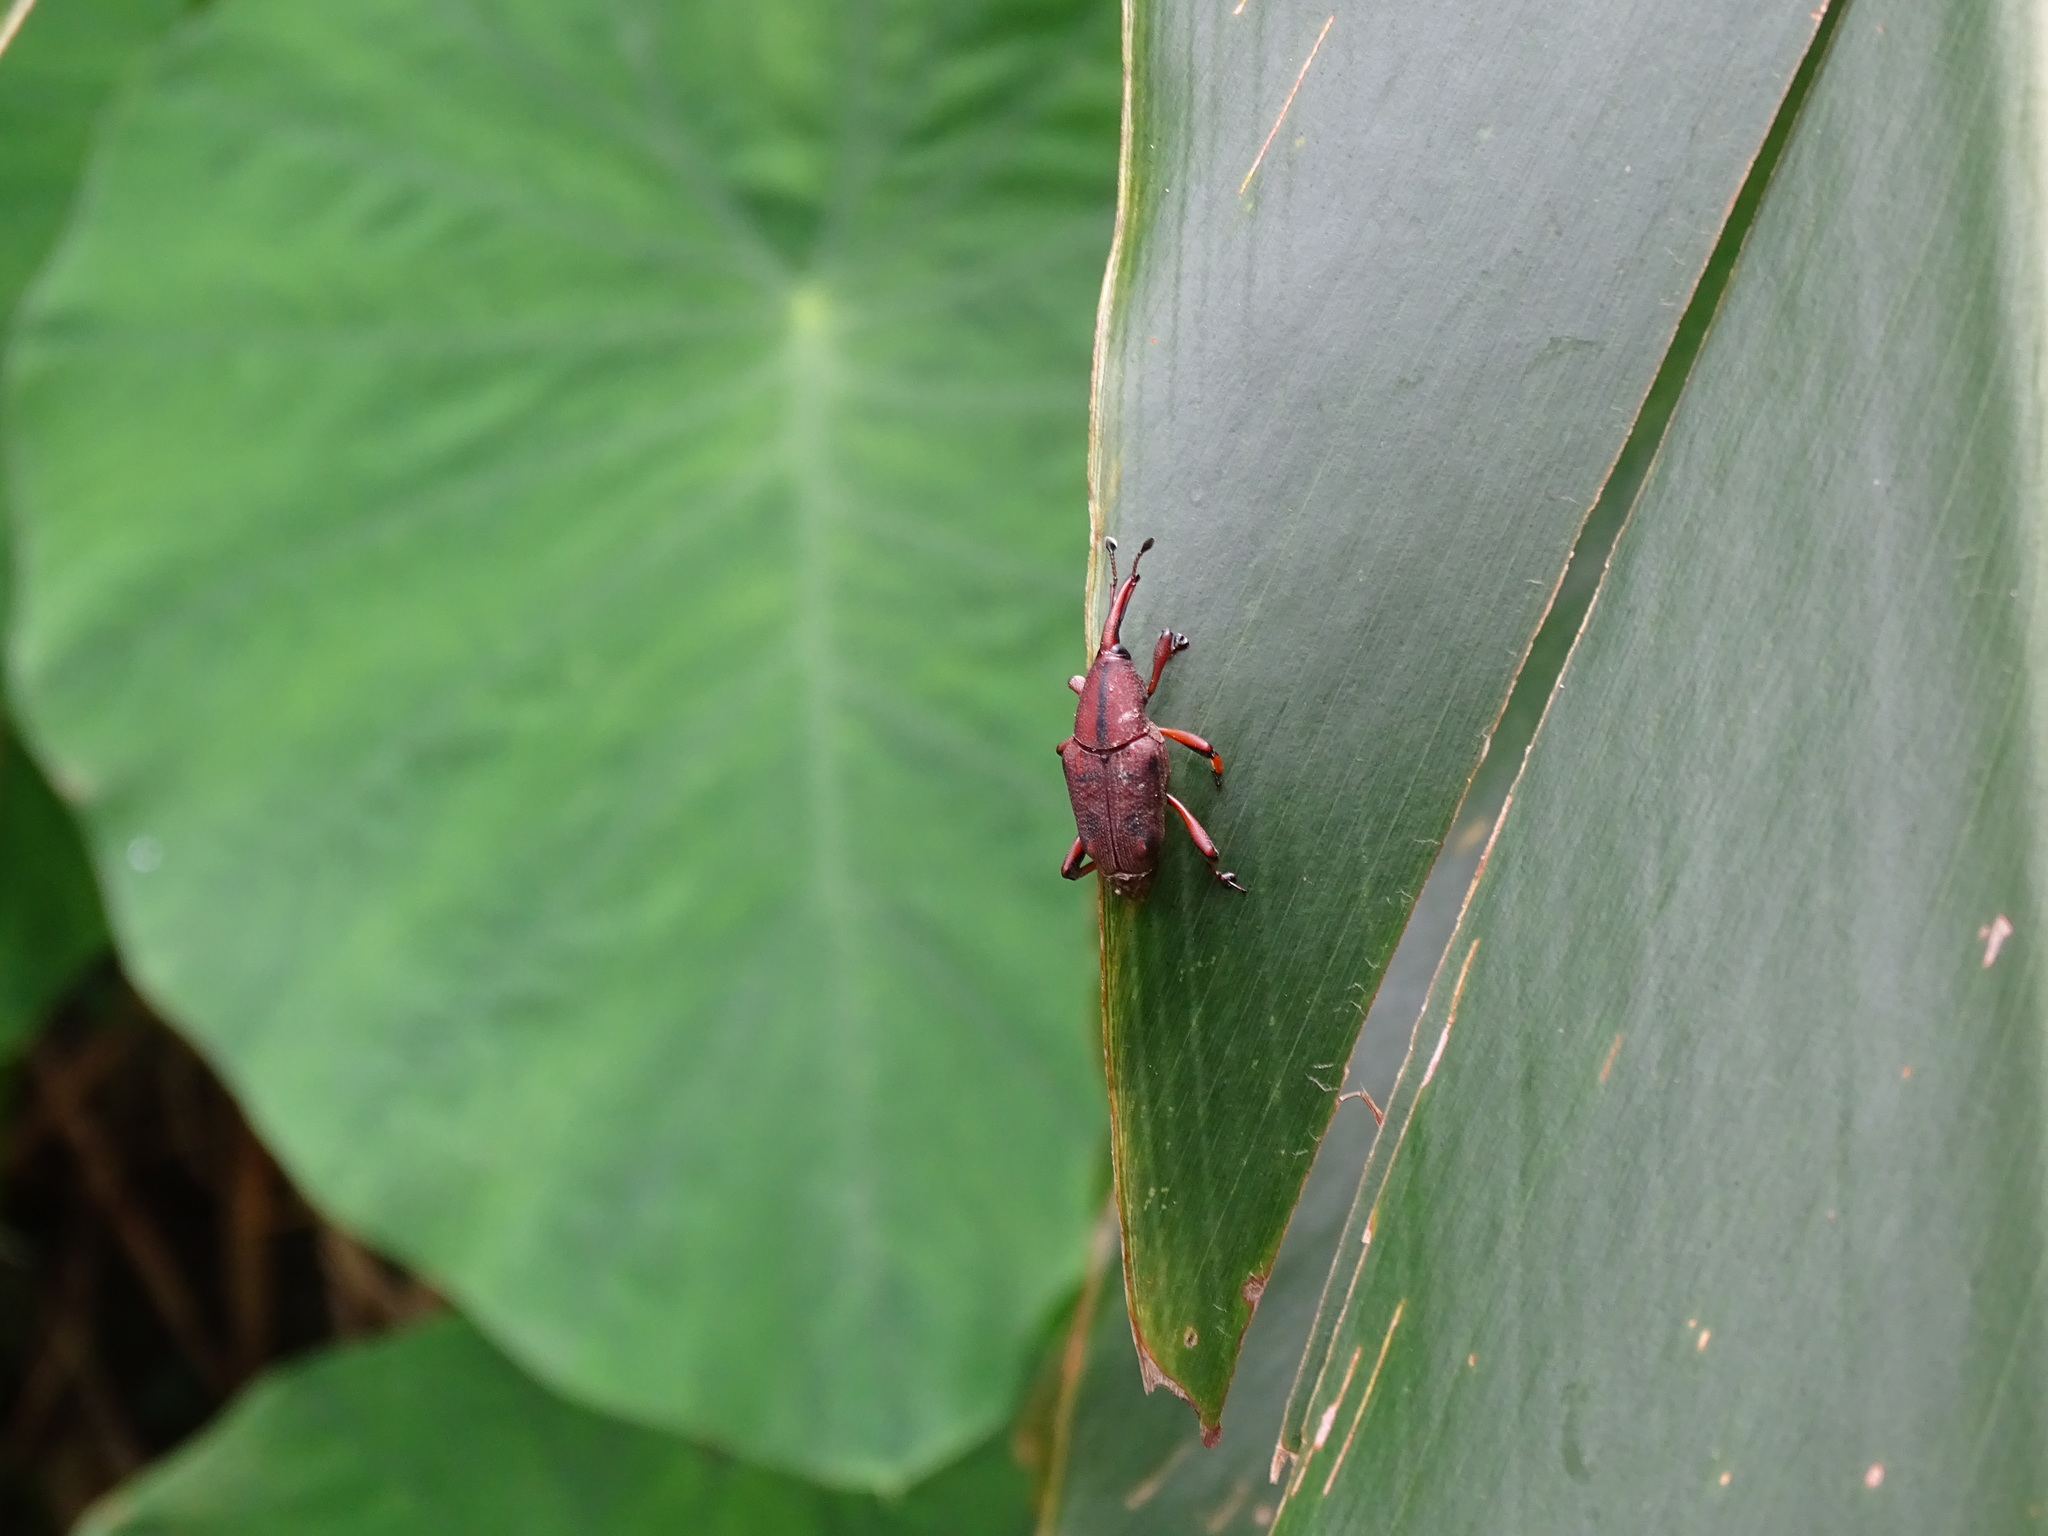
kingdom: Animalia
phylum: Arthropoda
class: Insecta
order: Coleoptera
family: Dryophthoridae
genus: Prodioctes
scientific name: Prodioctes formosanus
